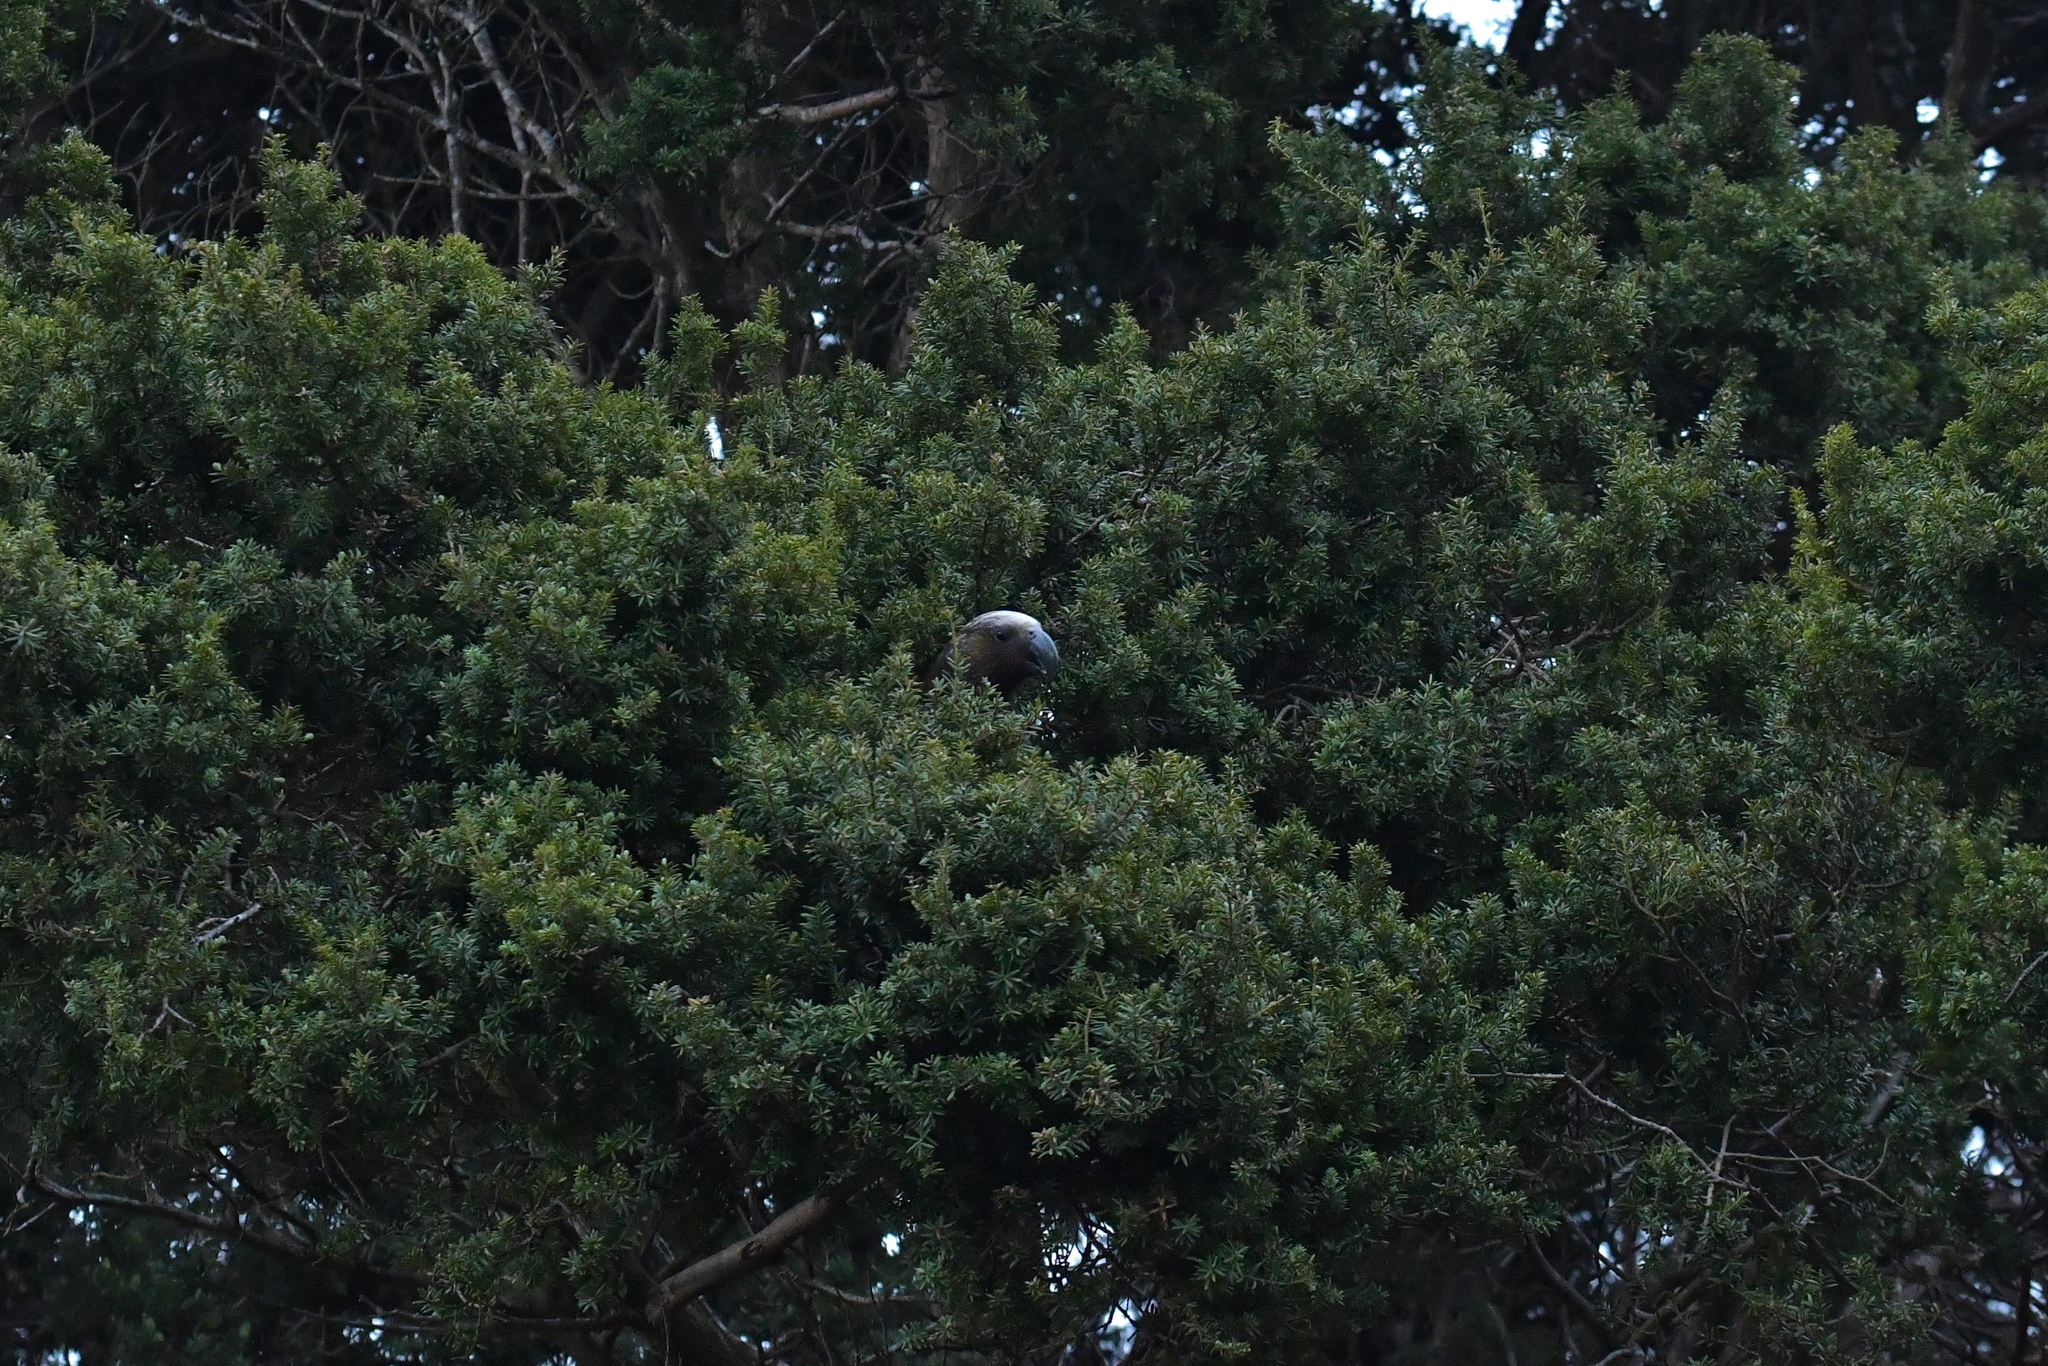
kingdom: Animalia
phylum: Chordata
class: Aves
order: Psittaciformes
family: Psittacidae
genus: Nestor
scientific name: Nestor meridionalis
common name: New zealand kaka
